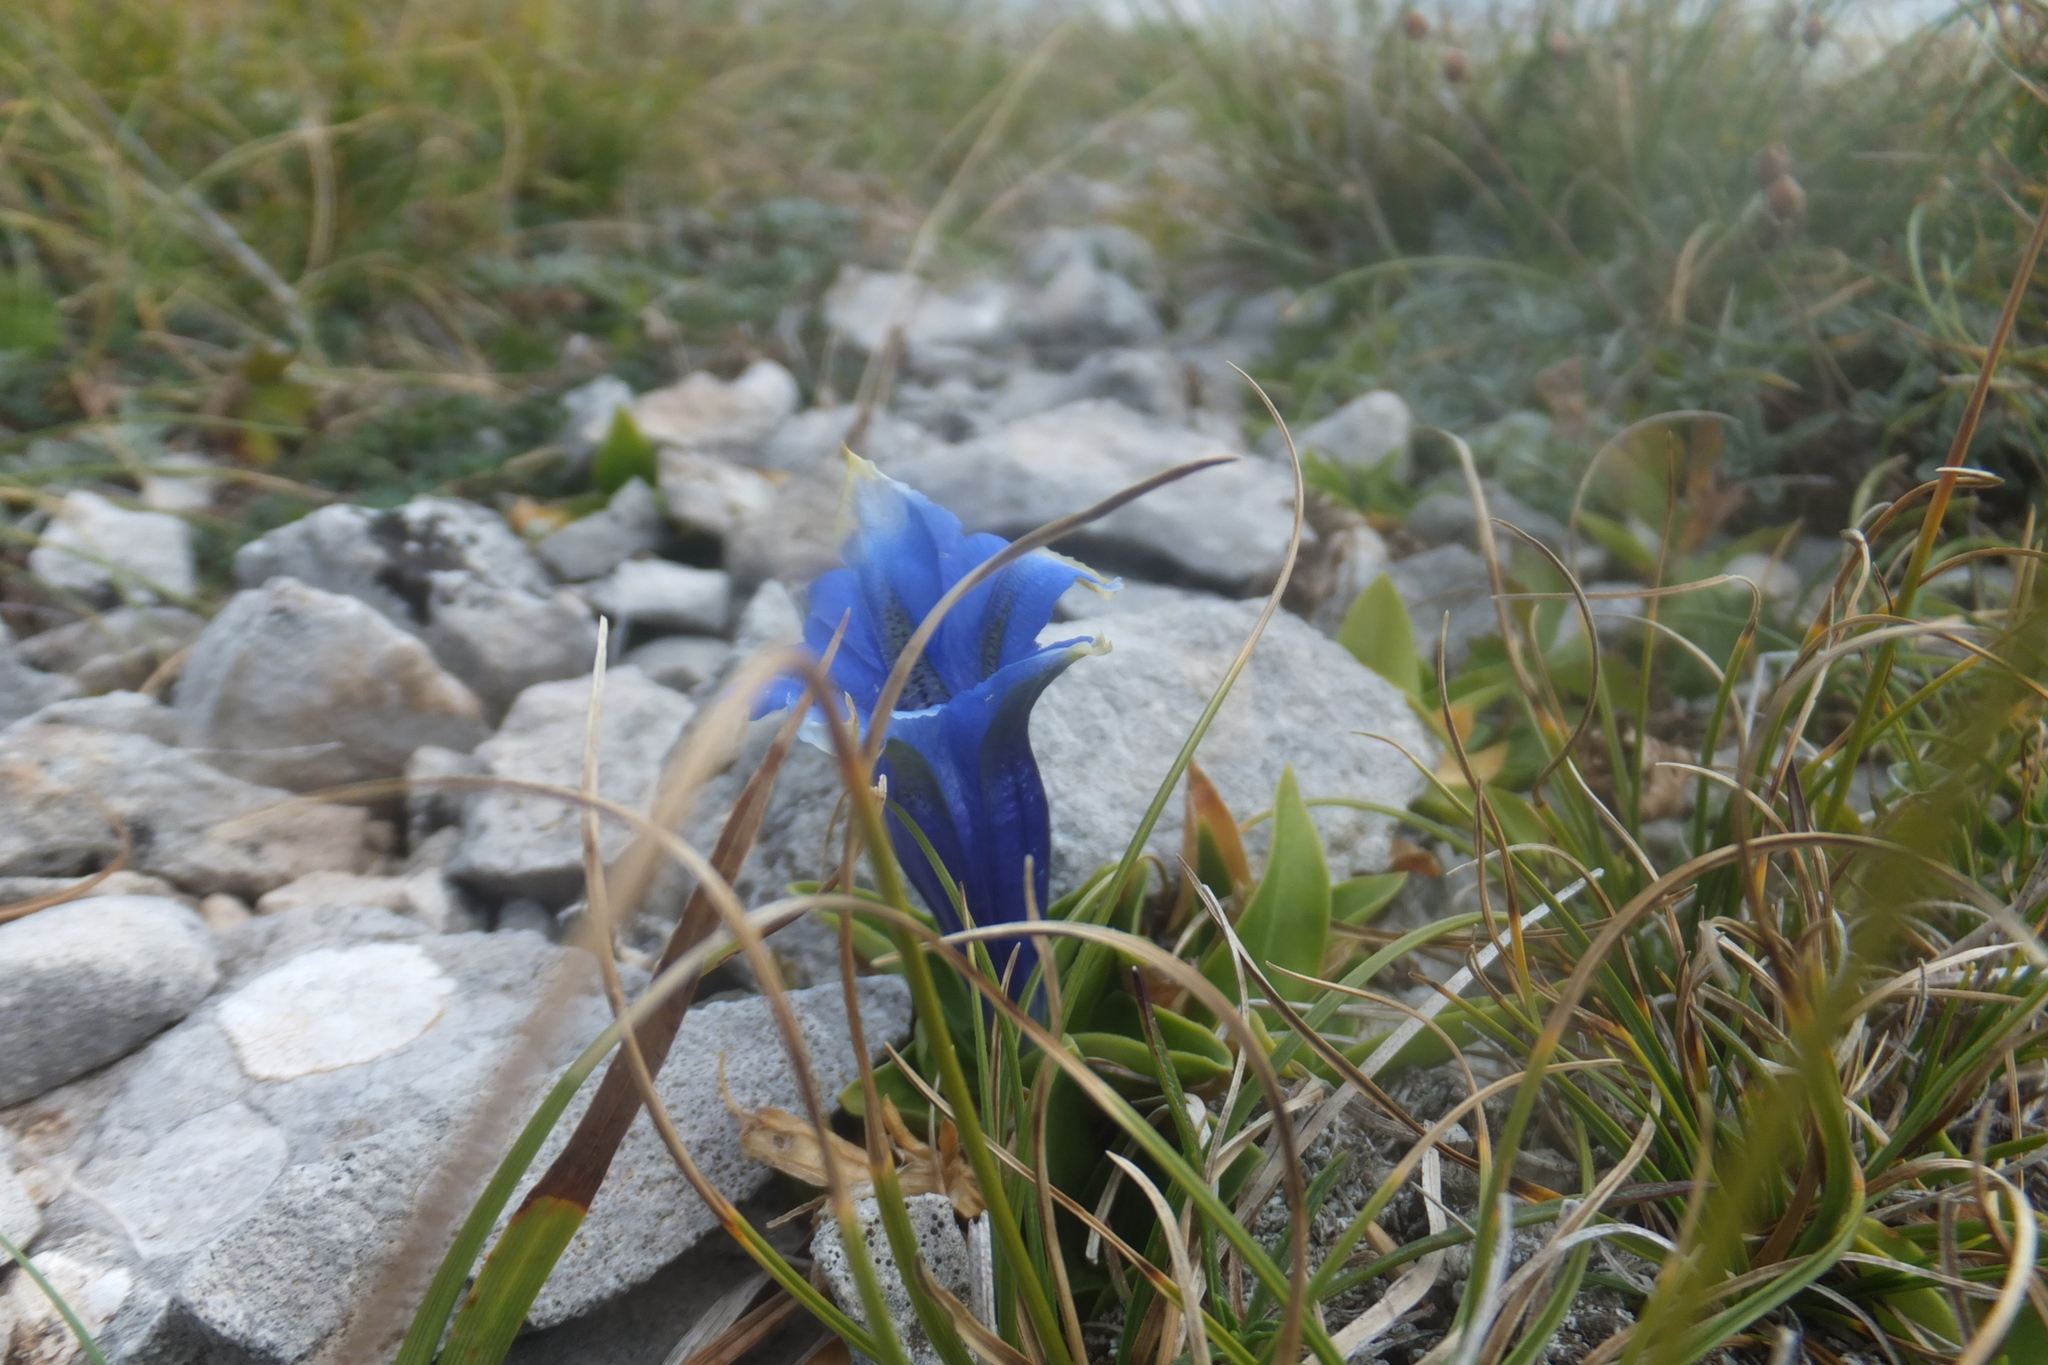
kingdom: Plantae
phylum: Tracheophyta
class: Magnoliopsida
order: Gentianales
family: Gentianaceae
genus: Gentiana
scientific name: Gentiana acaulis
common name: Trumpet gentian
